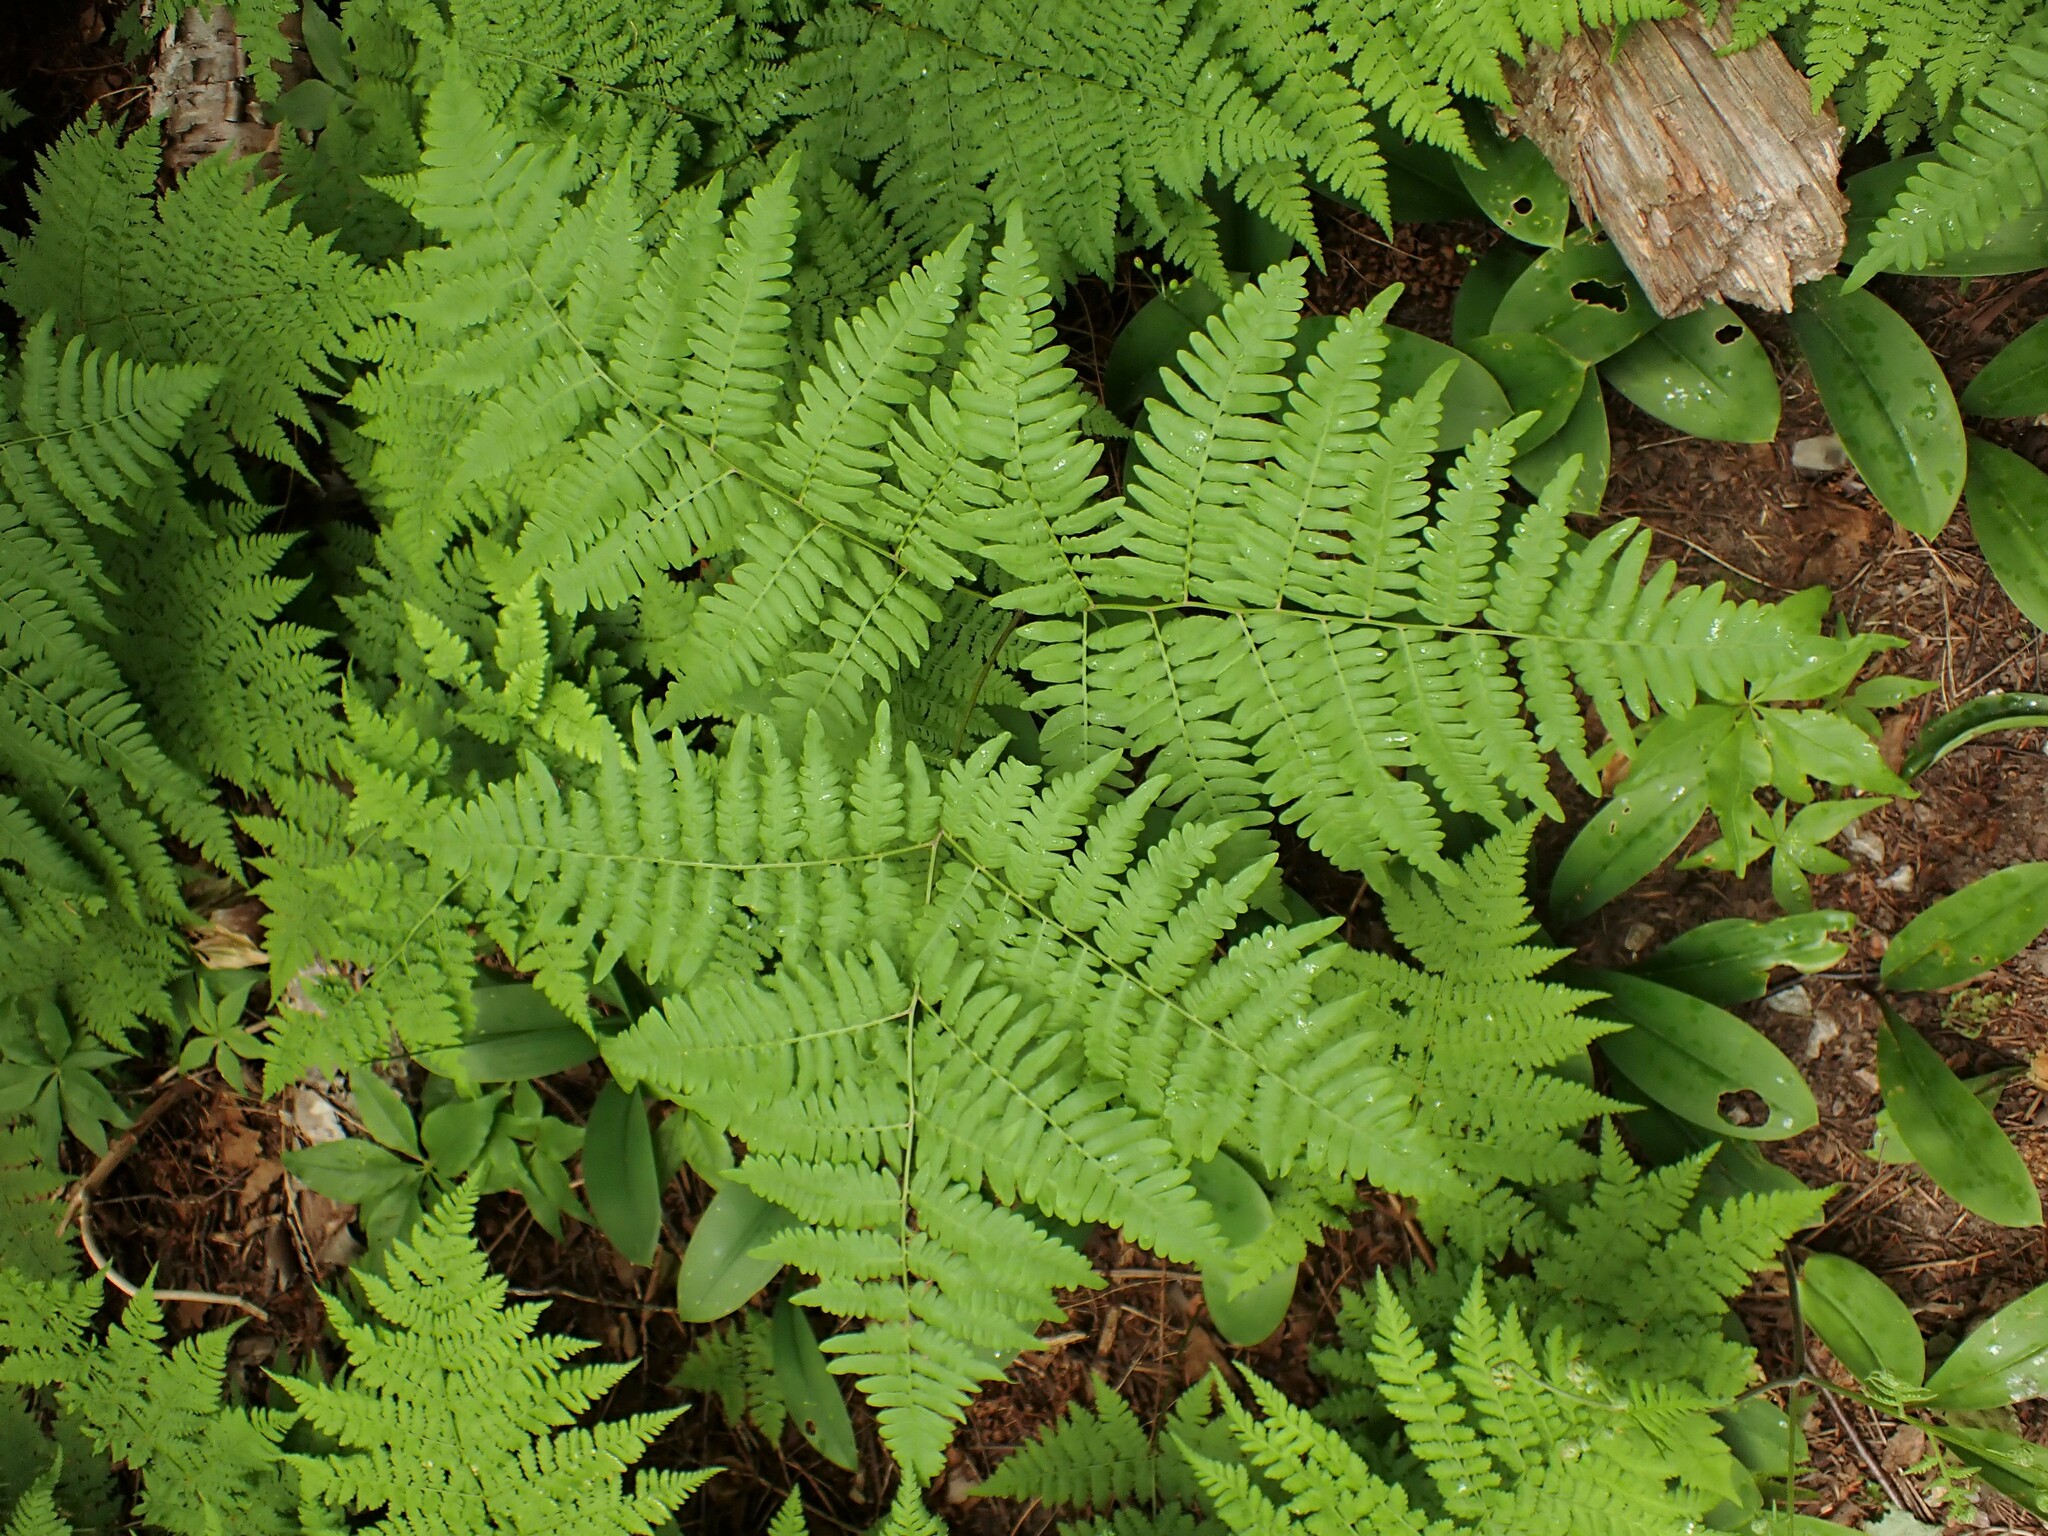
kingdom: Plantae
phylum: Tracheophyta
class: Polypodiopsida
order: Polypodiales
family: Dennstaedtiaceae
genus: Pteridium
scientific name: Pteridium aquilinum
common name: Bracken
